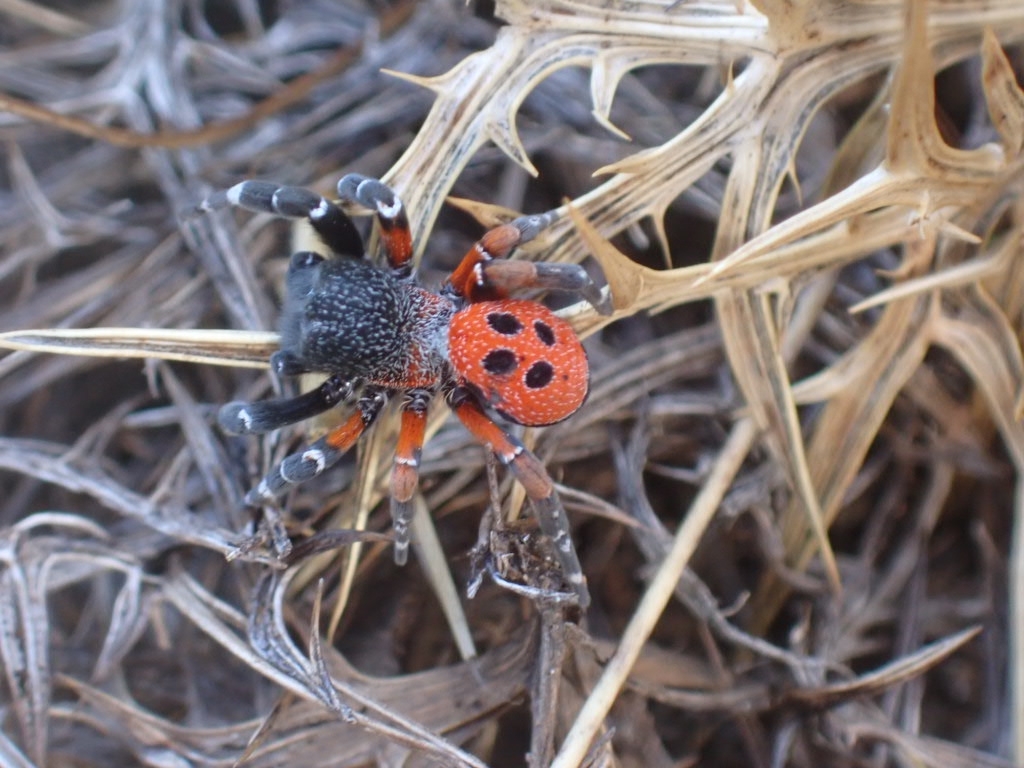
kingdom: Animalia
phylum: Arthropoda
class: Arachnida
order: Araneae
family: Eresidae
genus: Eresus
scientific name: Eresus
